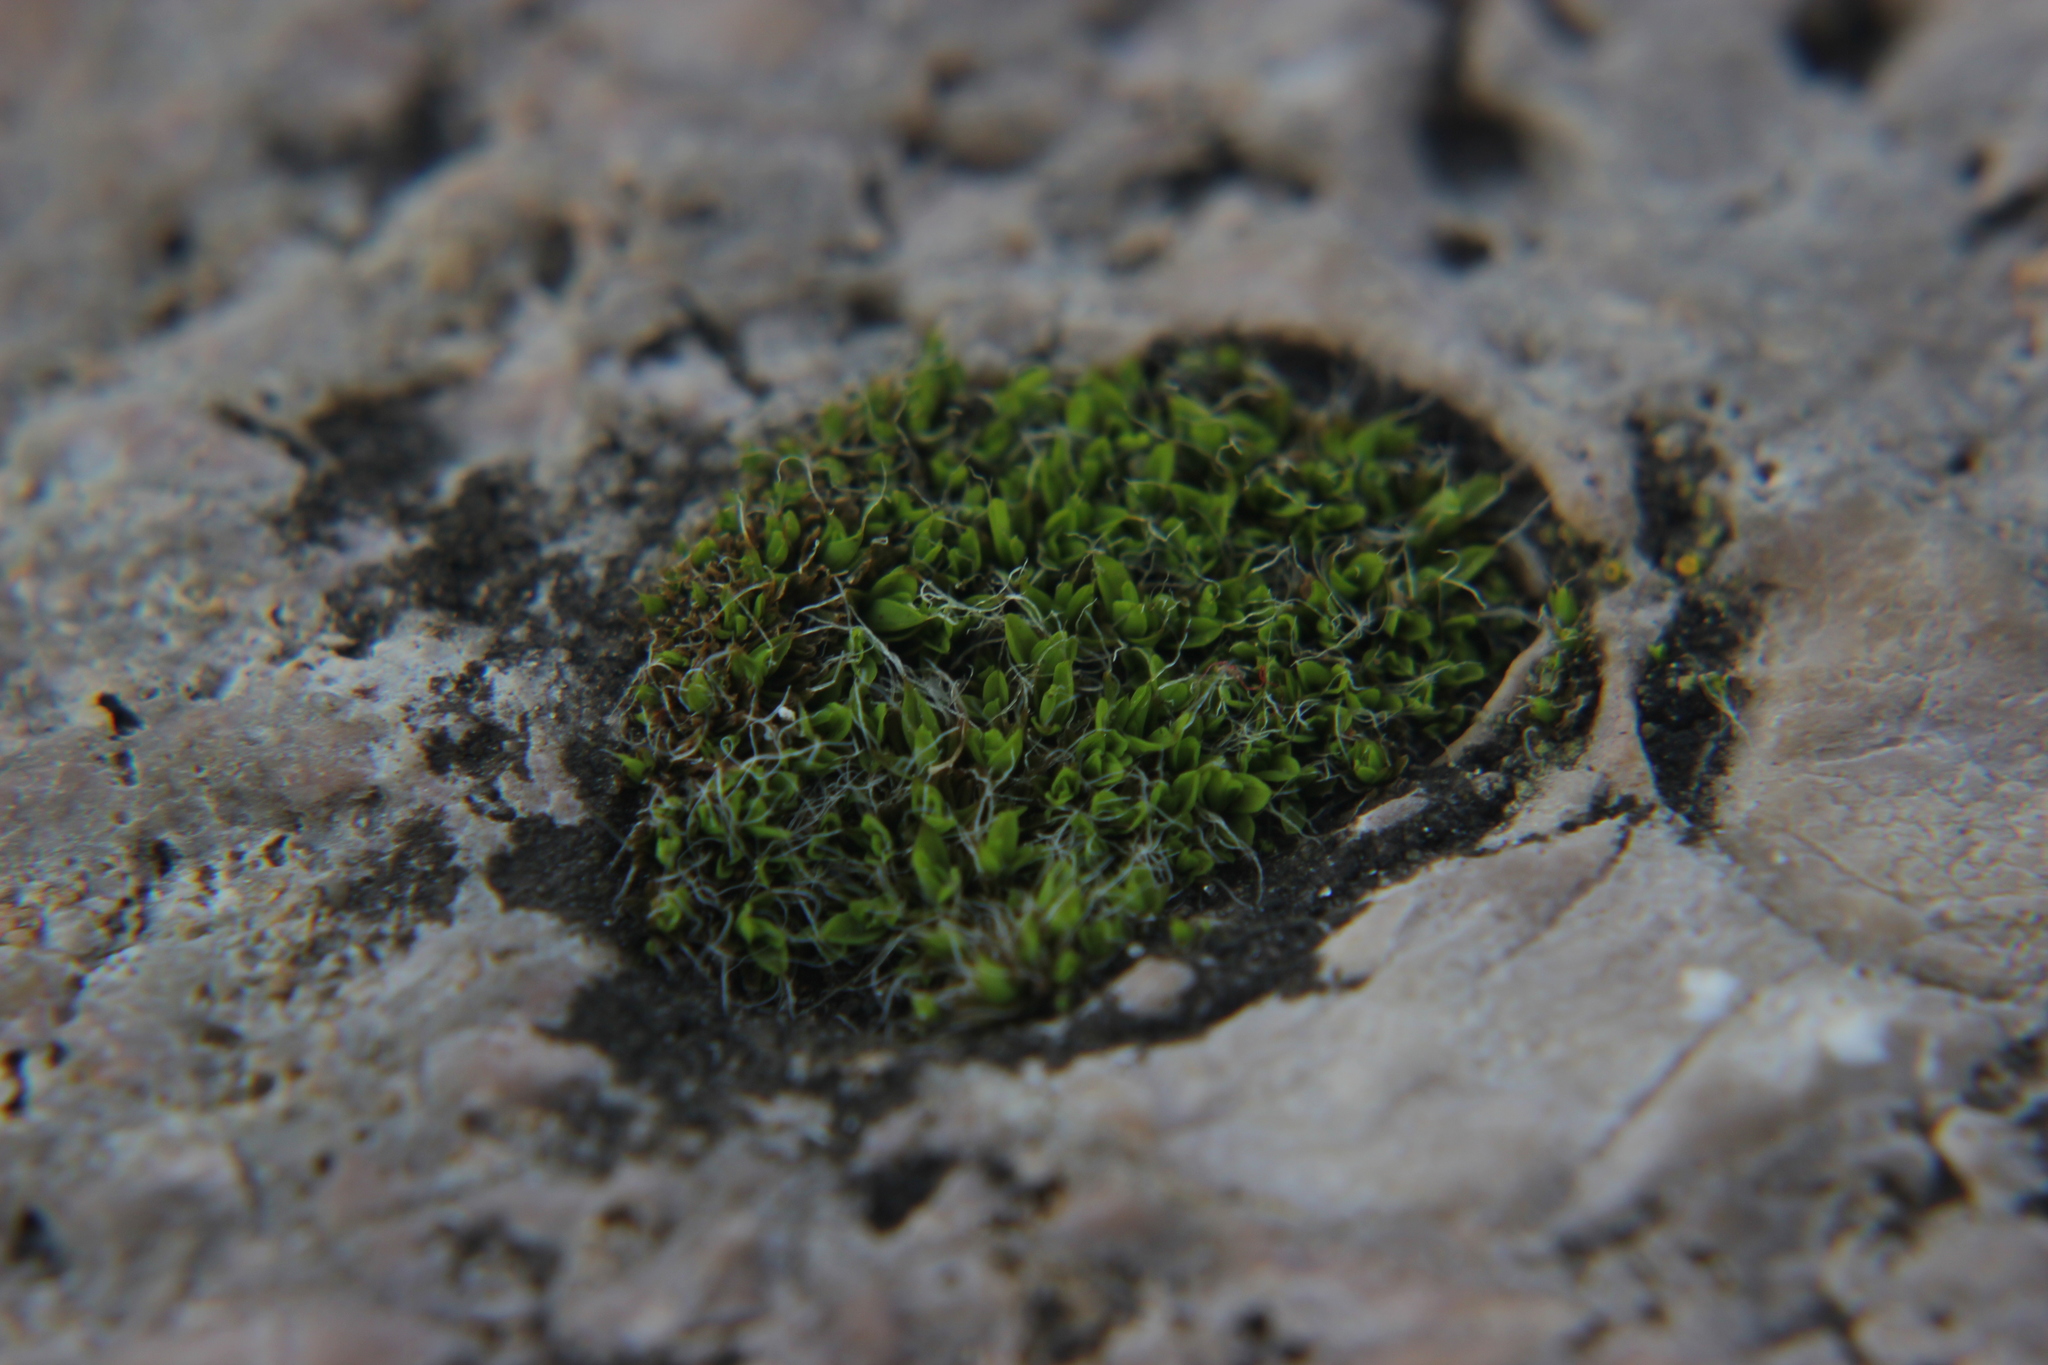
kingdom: Plantae
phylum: Bryophyta
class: Bryopsida
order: Pottiales
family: Pottiaceae
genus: Tortula
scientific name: Tortula muralis
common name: Wall screw-moss
